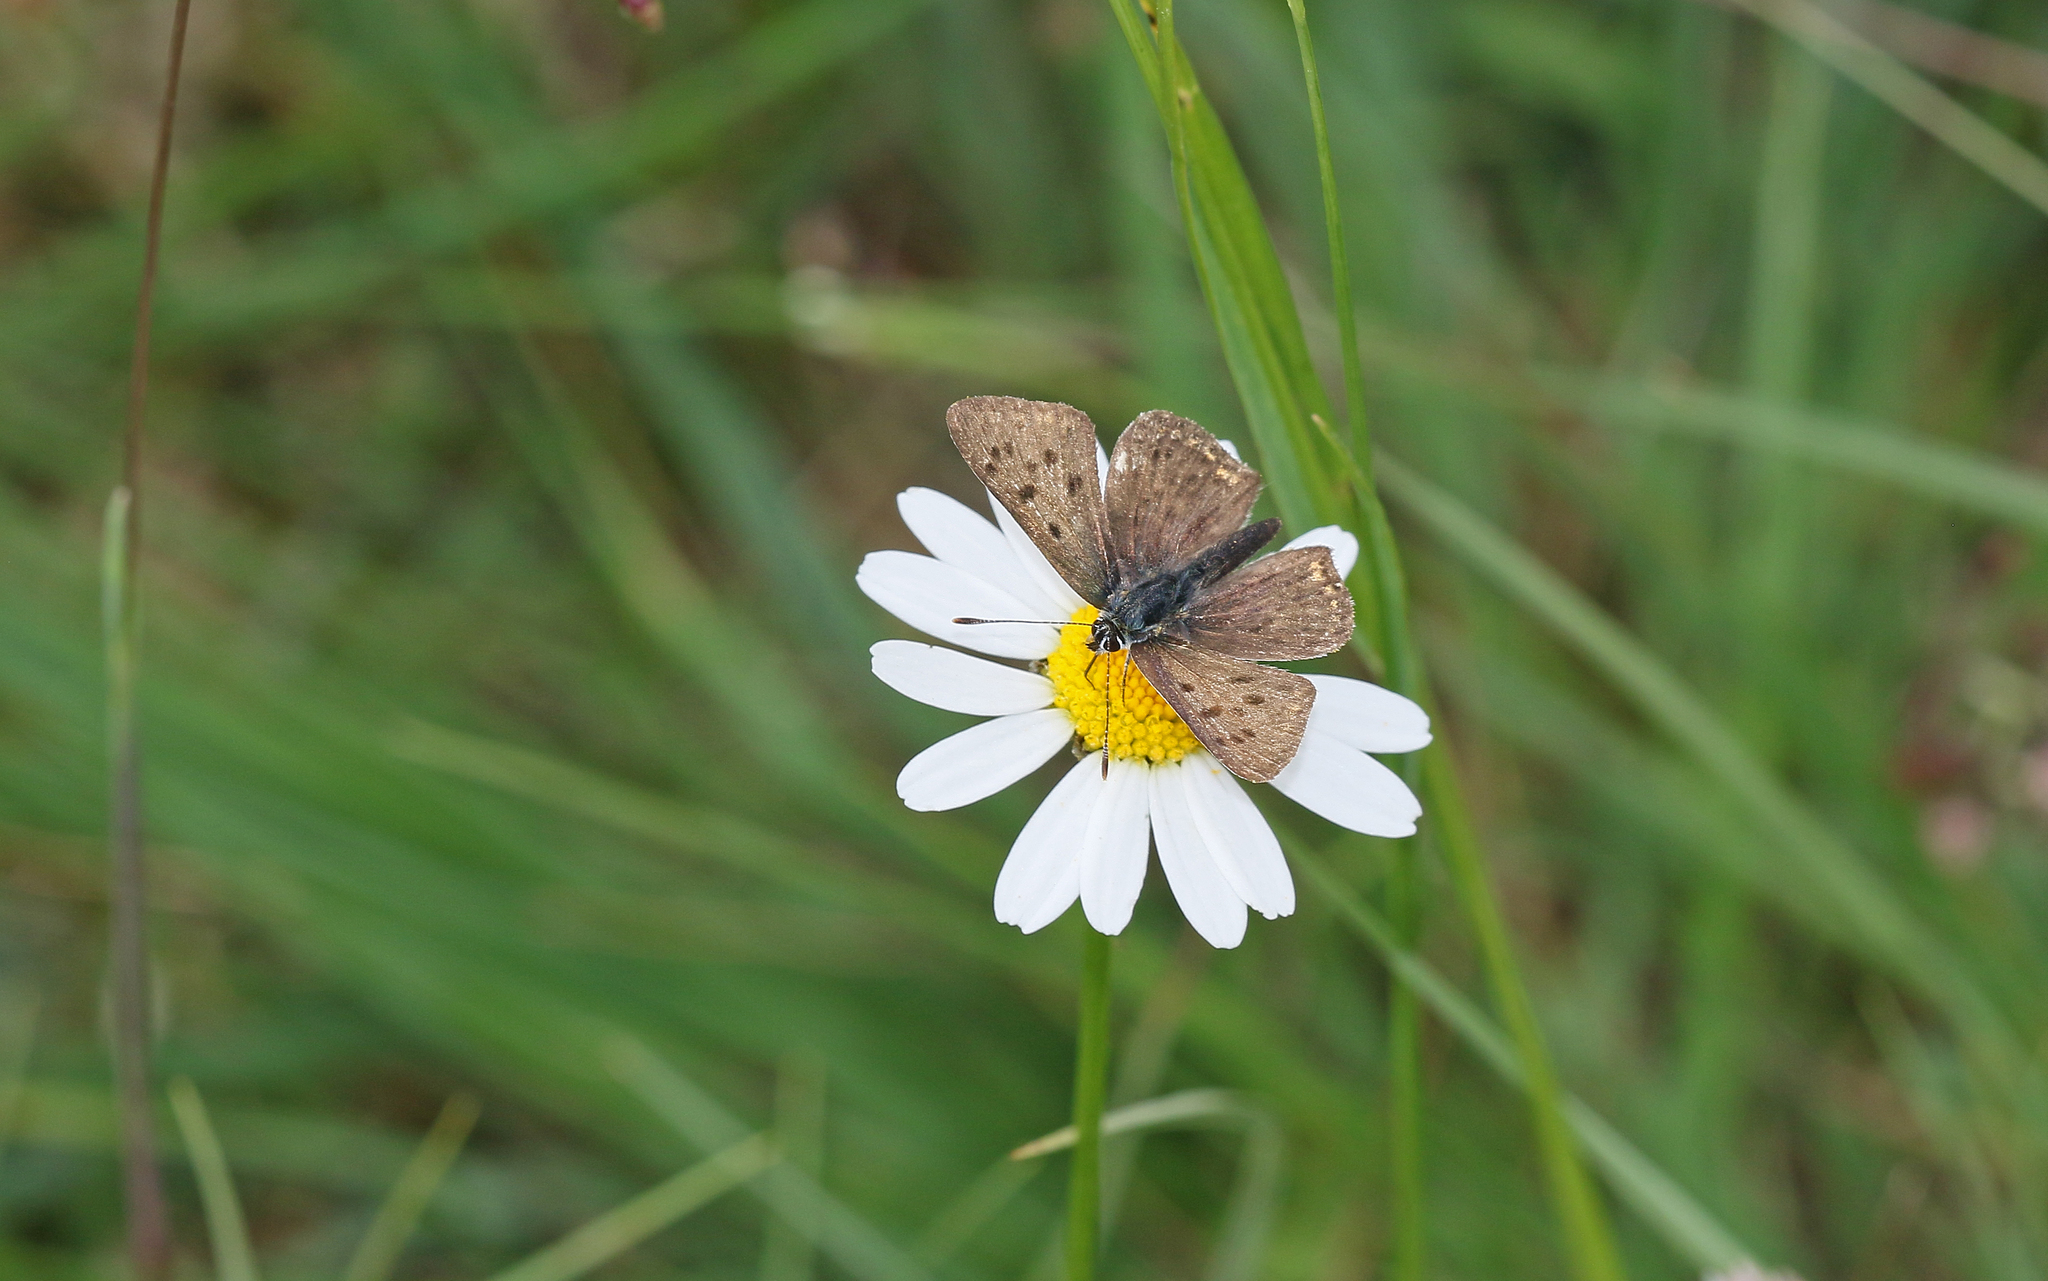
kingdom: Animalia
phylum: Arthropoda
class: Insecta
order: Lepidoptera
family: Lycaenidae
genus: Loweia
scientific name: Loweia tityrus
